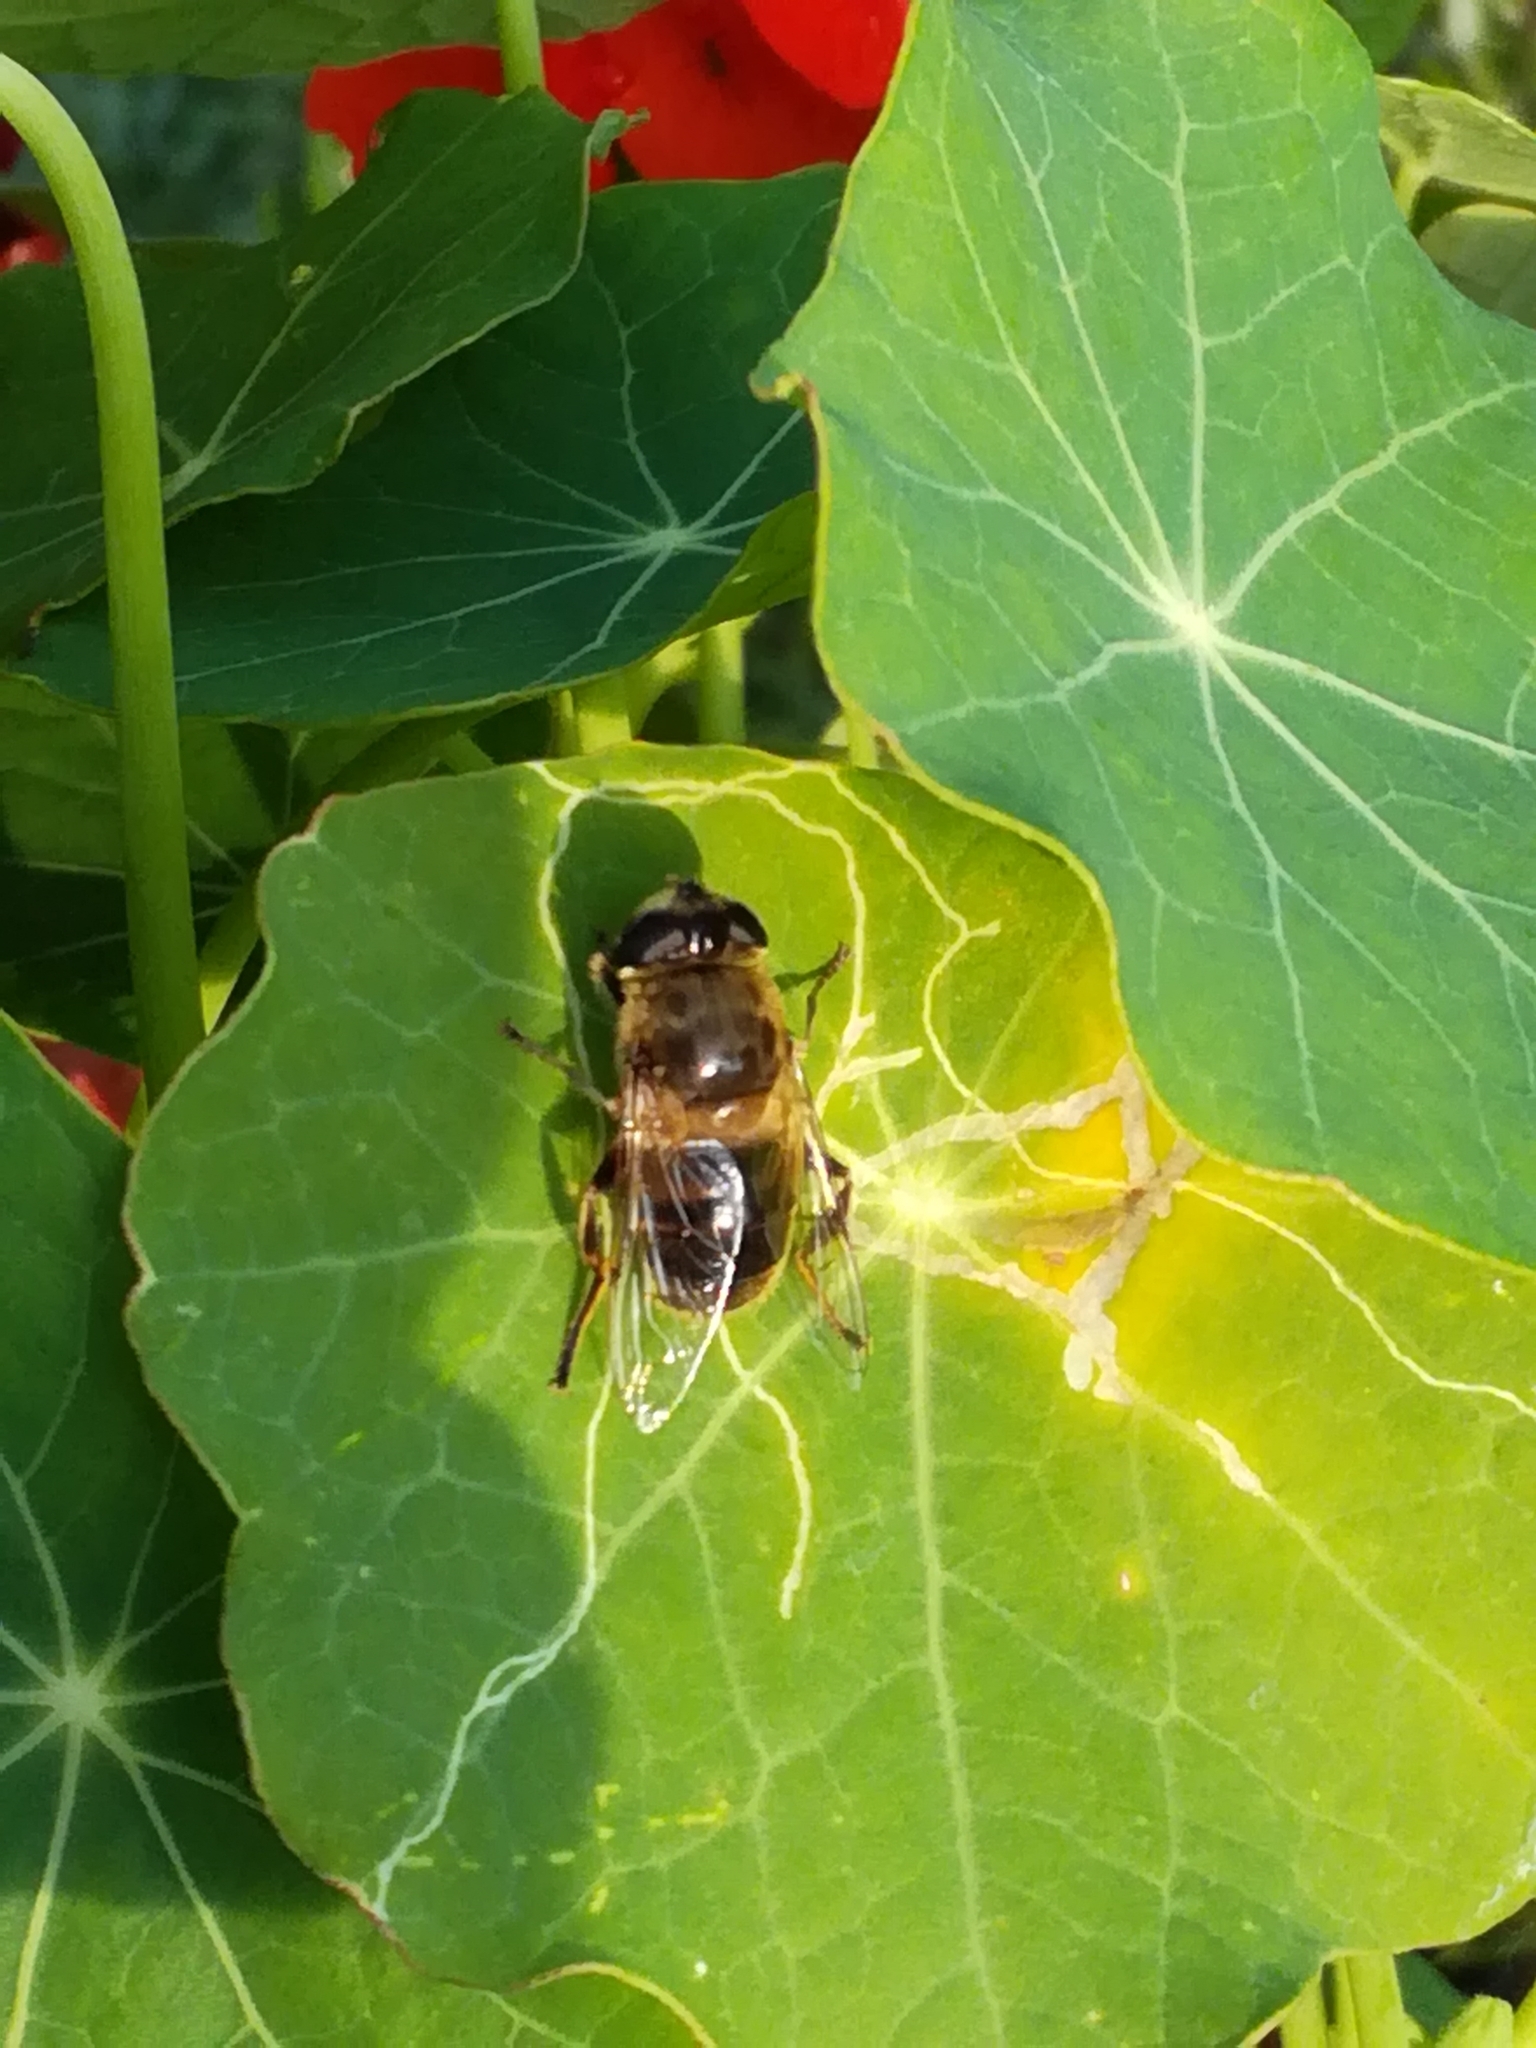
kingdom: Animalia
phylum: Arthropoda
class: Insecta
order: Diptera
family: Syrphidae
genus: Eristalis
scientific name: Eristalis tenax
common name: Drone fly
